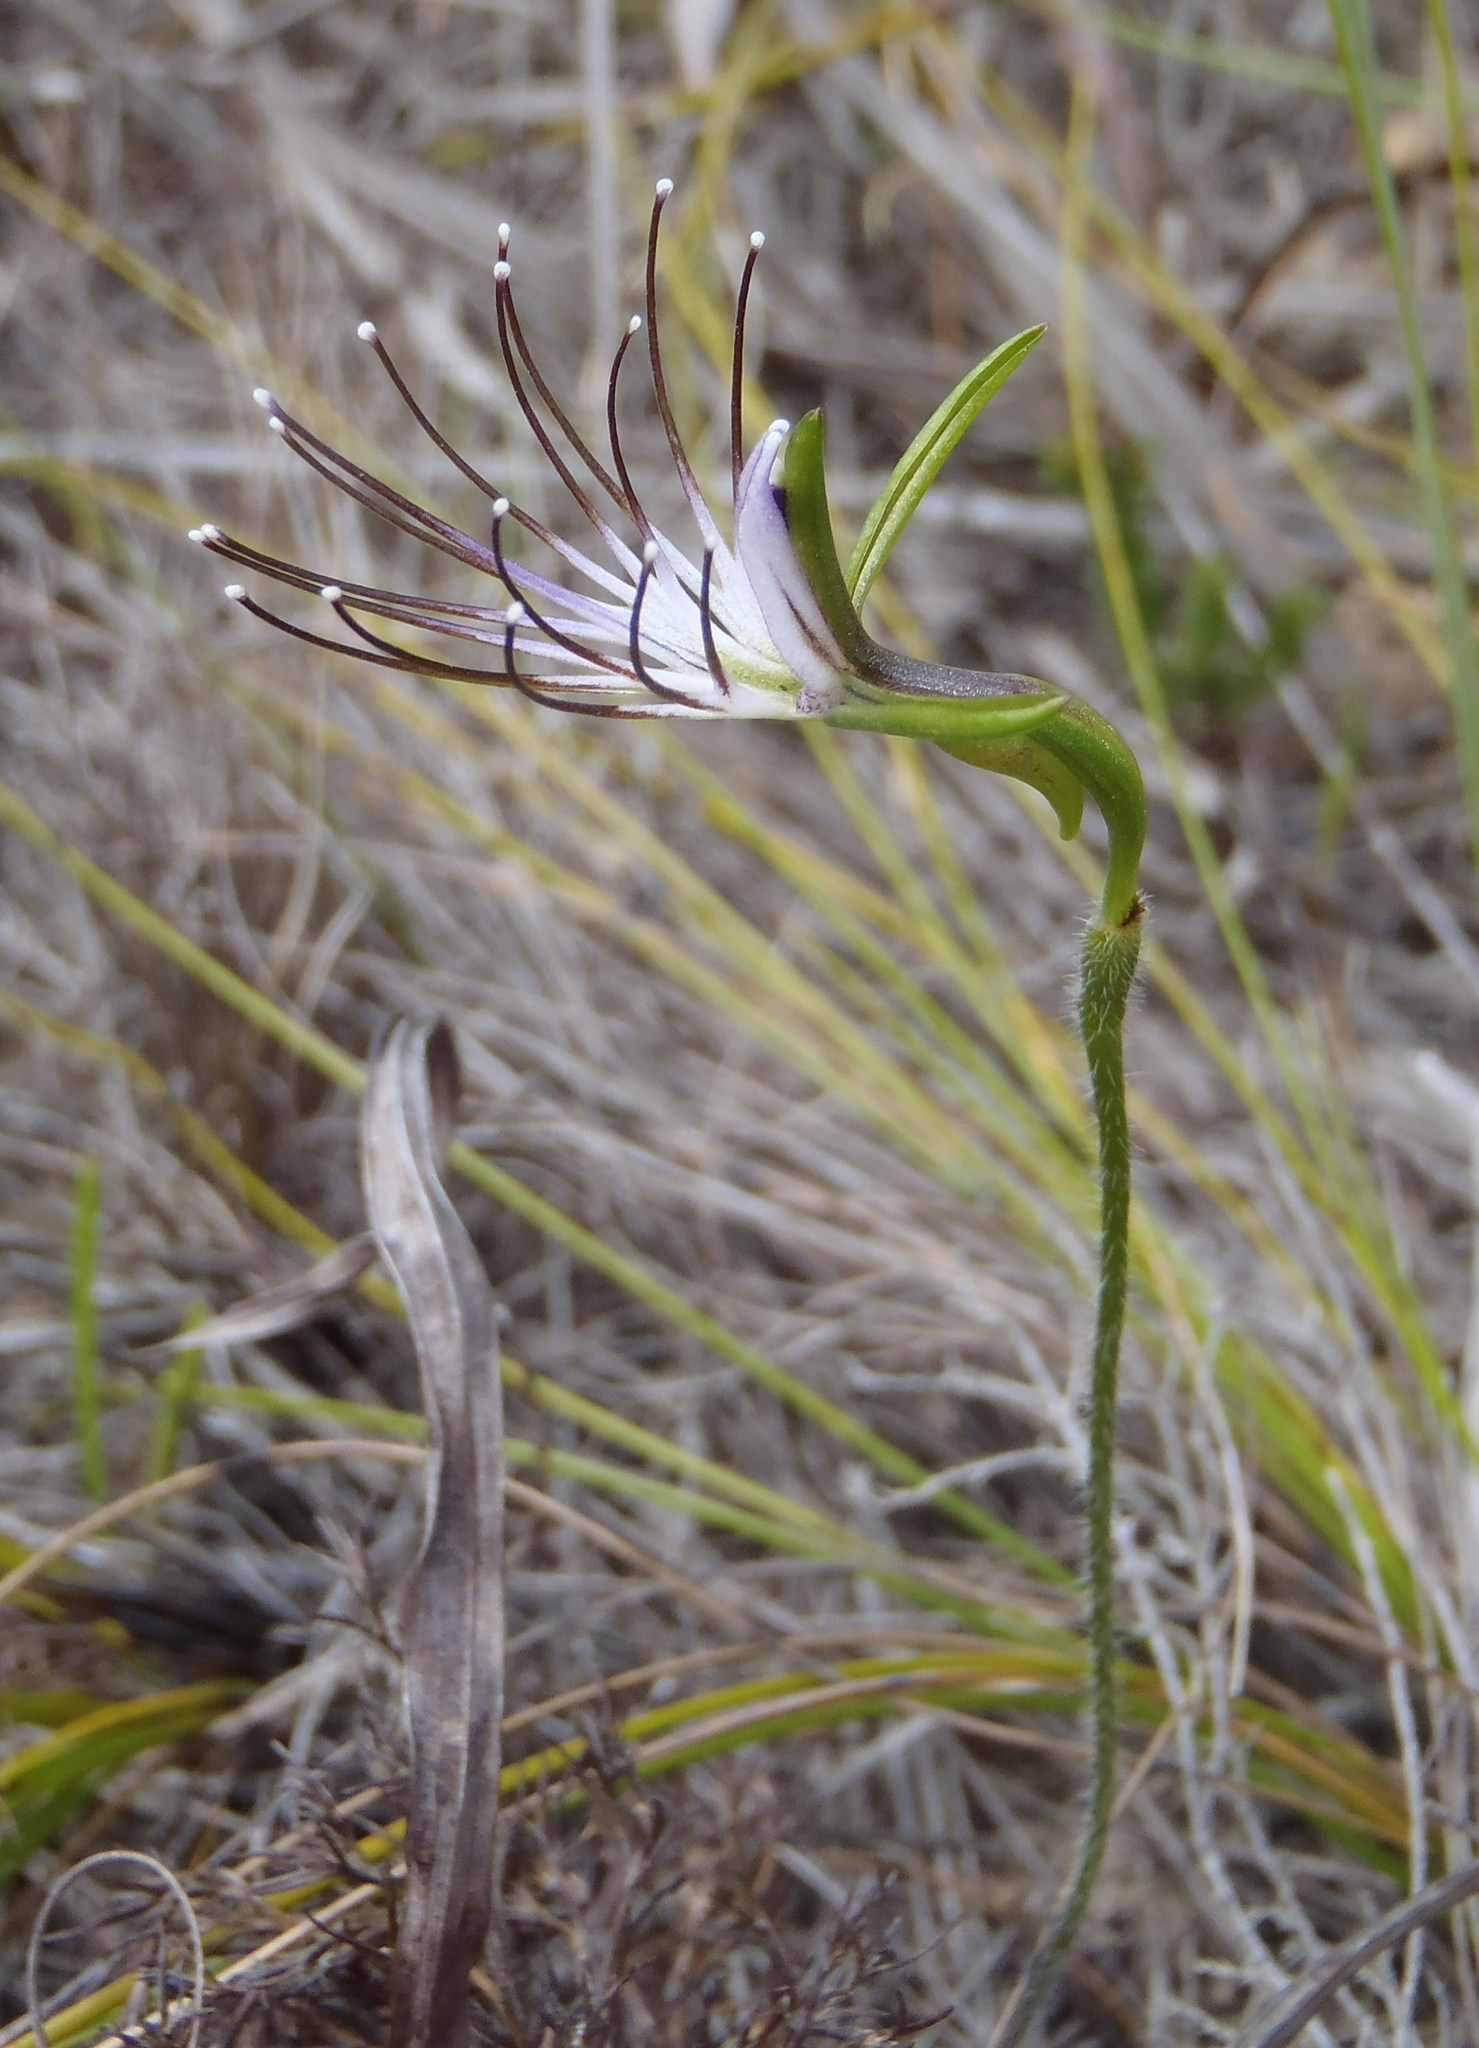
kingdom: Plantae
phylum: Tracheophyta
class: Liliopsida
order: Asparagales
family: Orchidaceae
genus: Holothrix
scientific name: Holothrix etheliae
